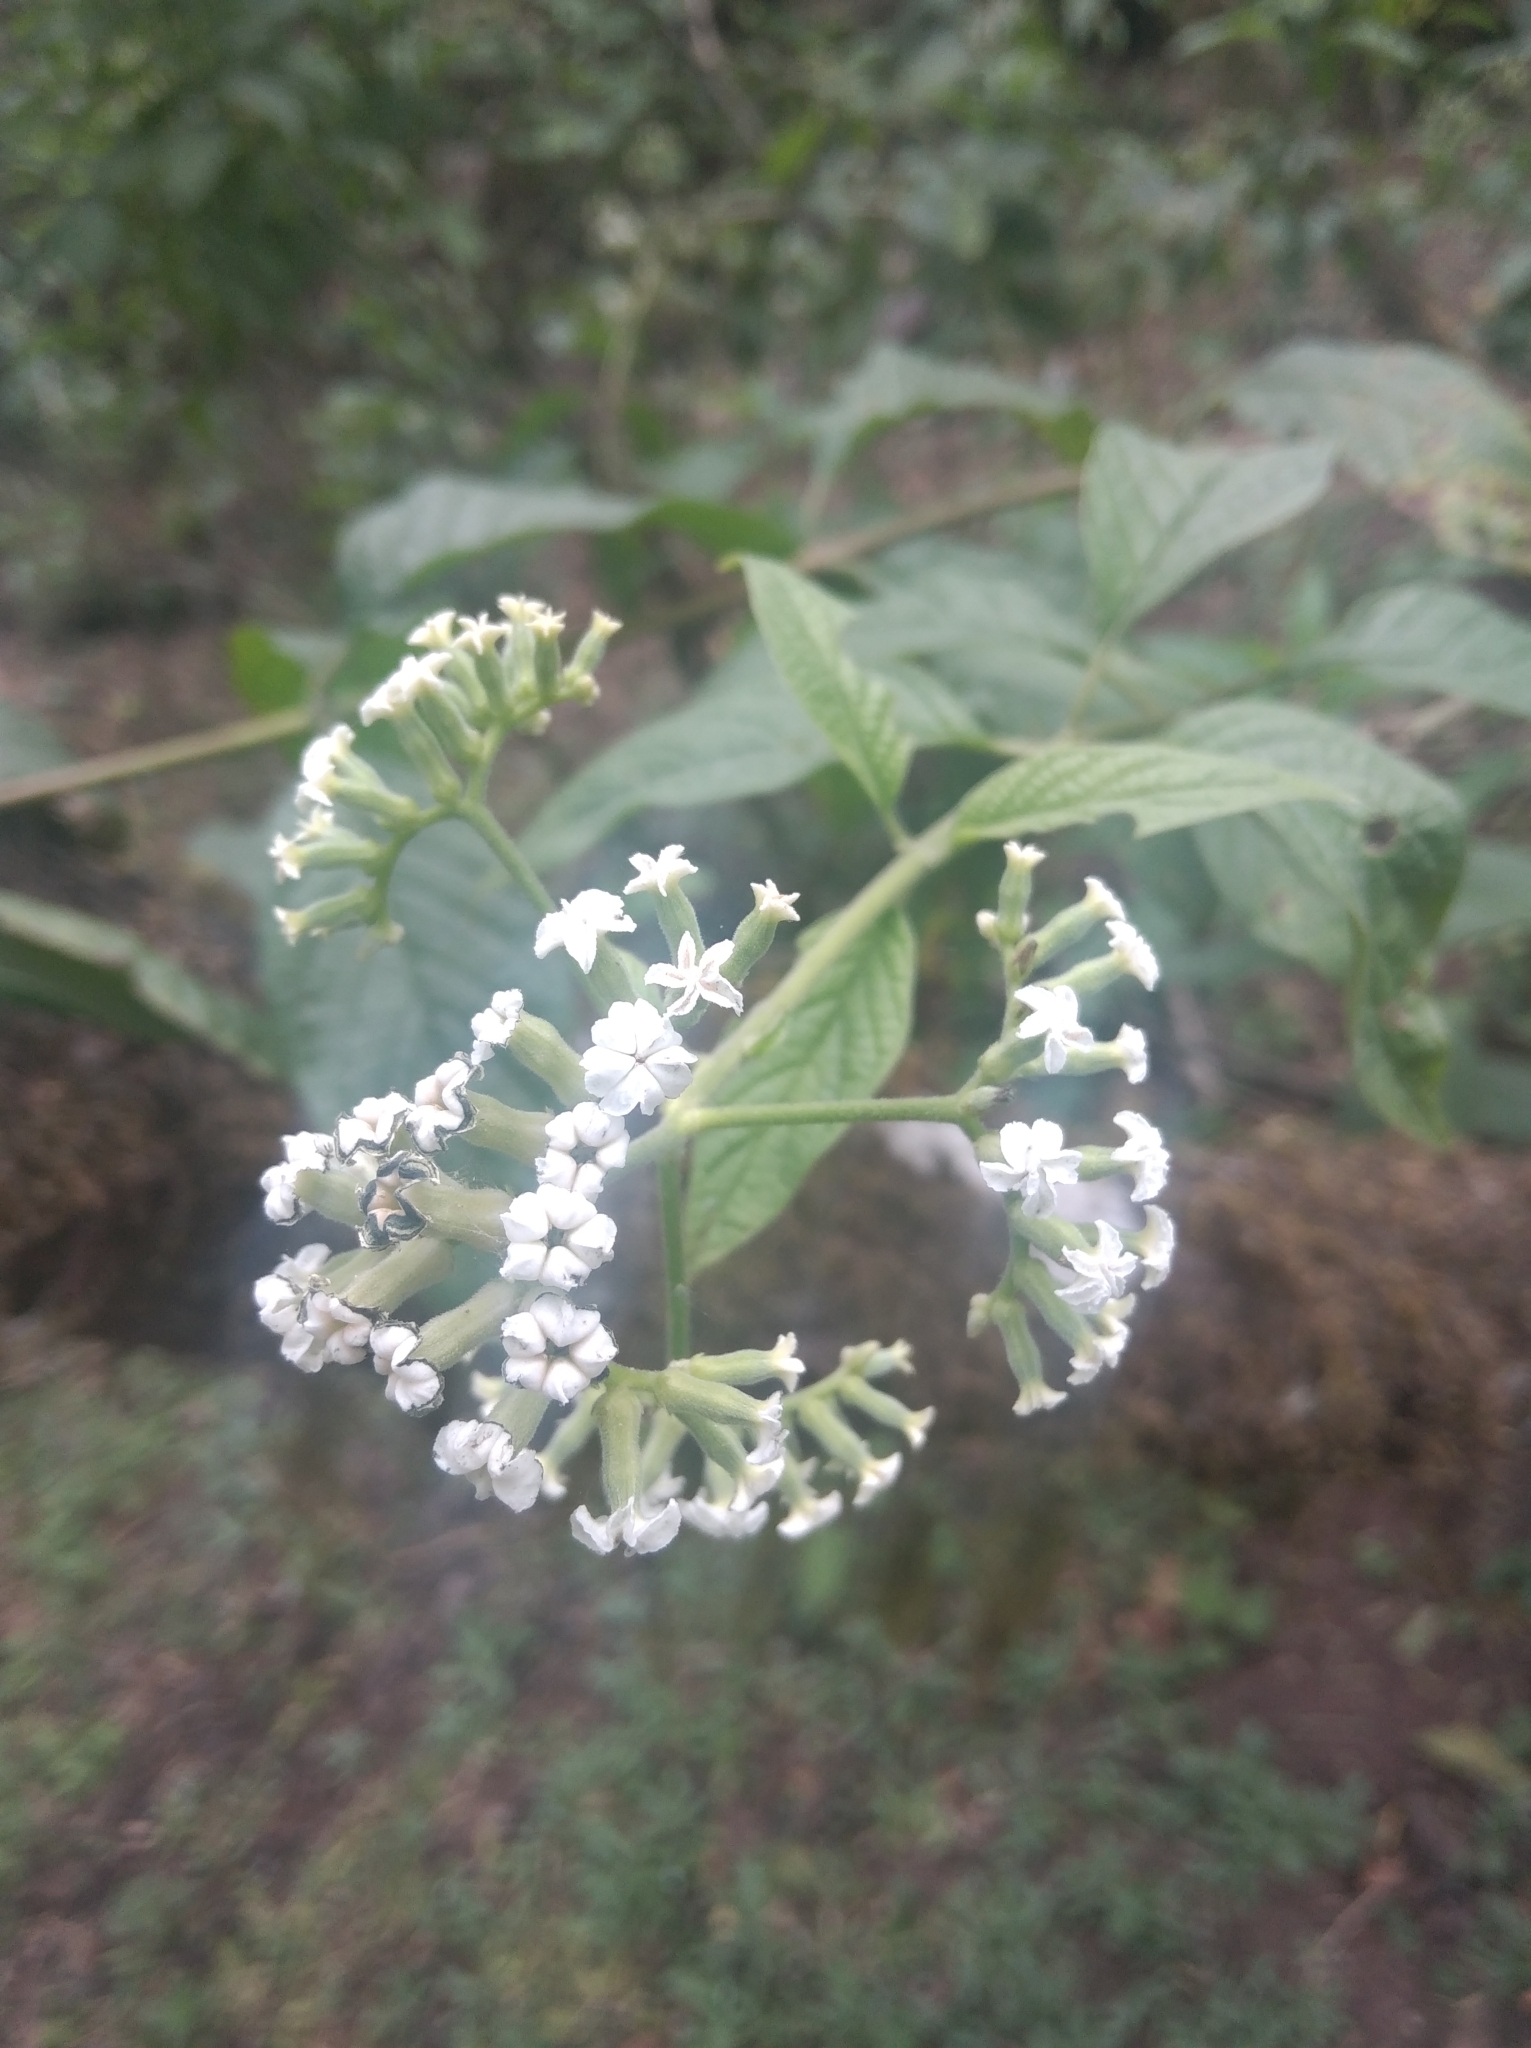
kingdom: Plantae
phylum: Tracheophyta
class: Magnoliopsida
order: Boraginales
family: Heliotropiaceae
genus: Myriopus
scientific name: Myriopus paniculatus
